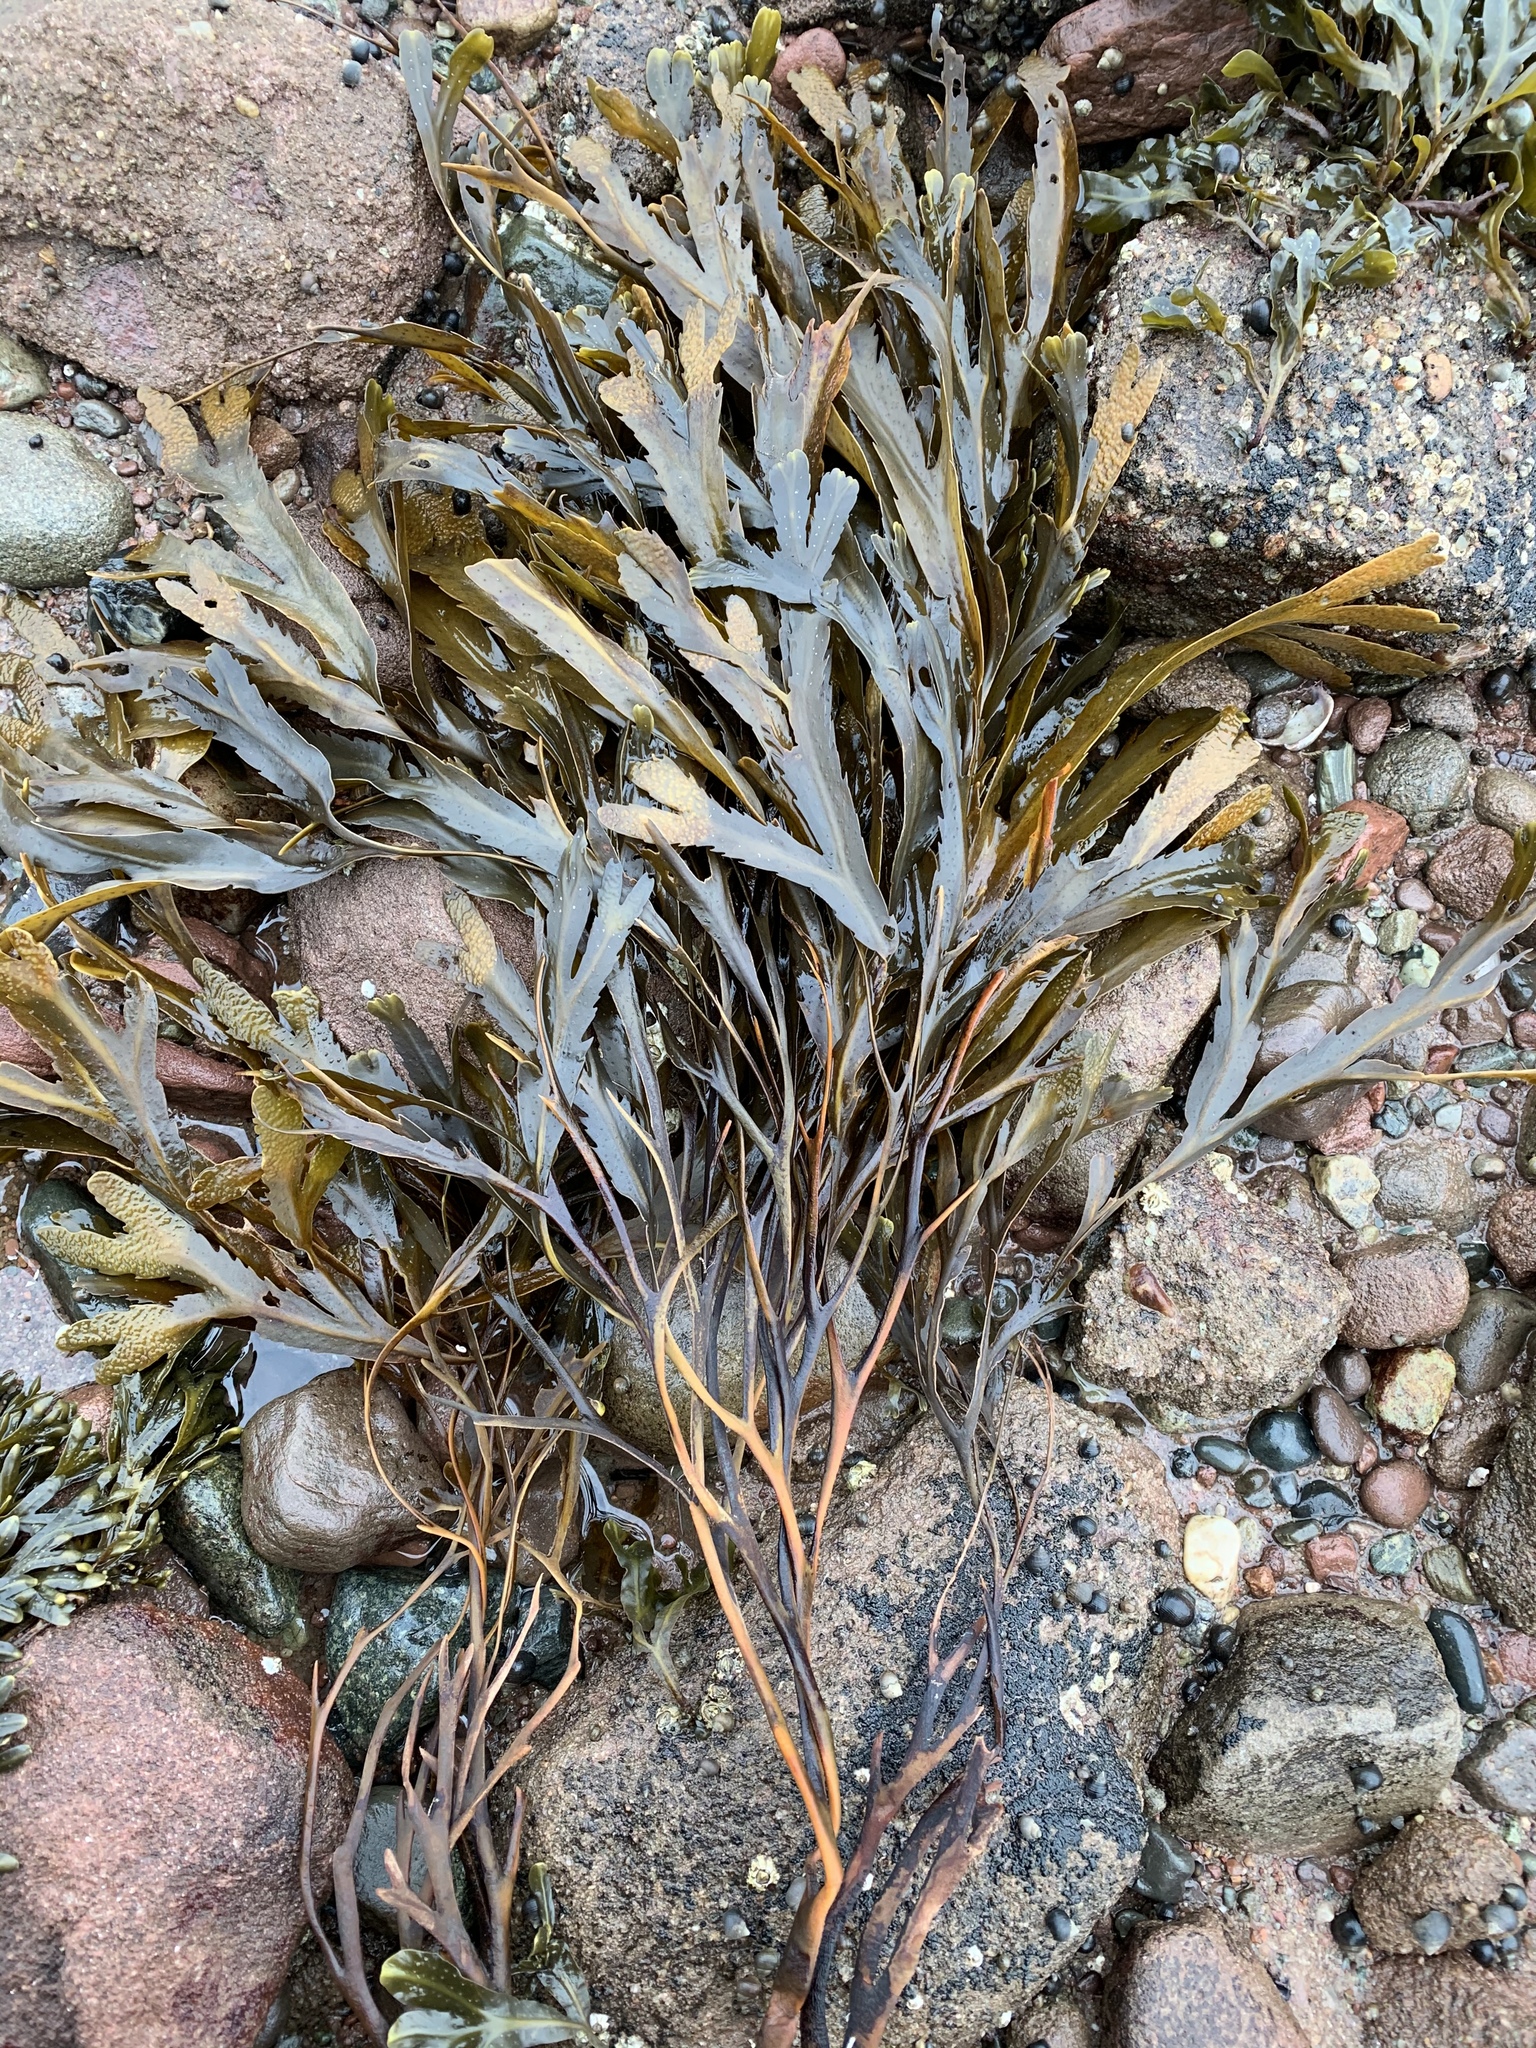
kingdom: Chromista
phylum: Ochrophyta
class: Phaeophyceae
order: Fucales
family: Fucaceae
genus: Fucus
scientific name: Fucus serratus
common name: Toothed wrack
